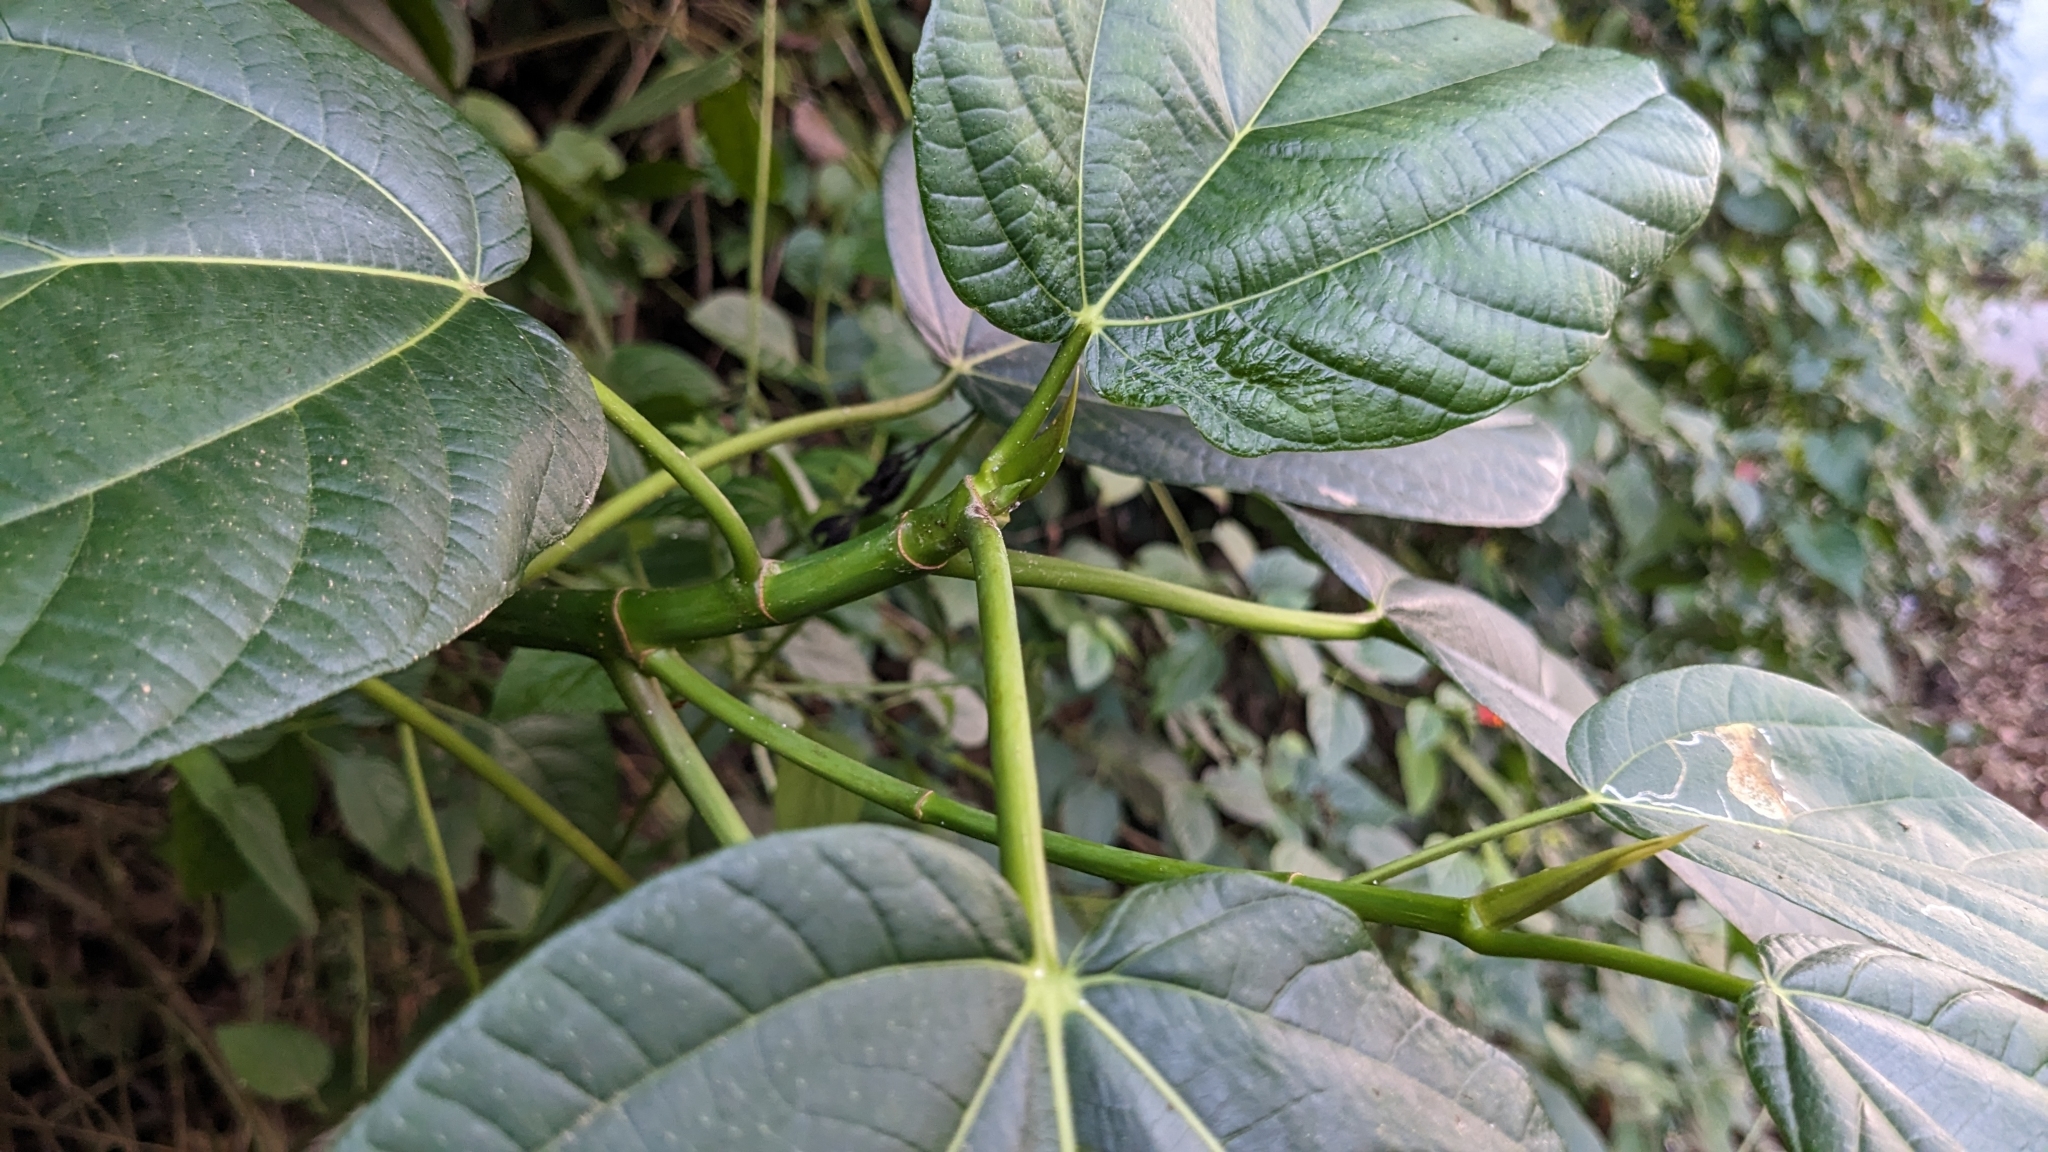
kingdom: Plantae
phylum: Tracheophyta
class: Magnoliopsida
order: Rosales
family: Moraceae
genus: Ficus
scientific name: Ficus ruficaulis
